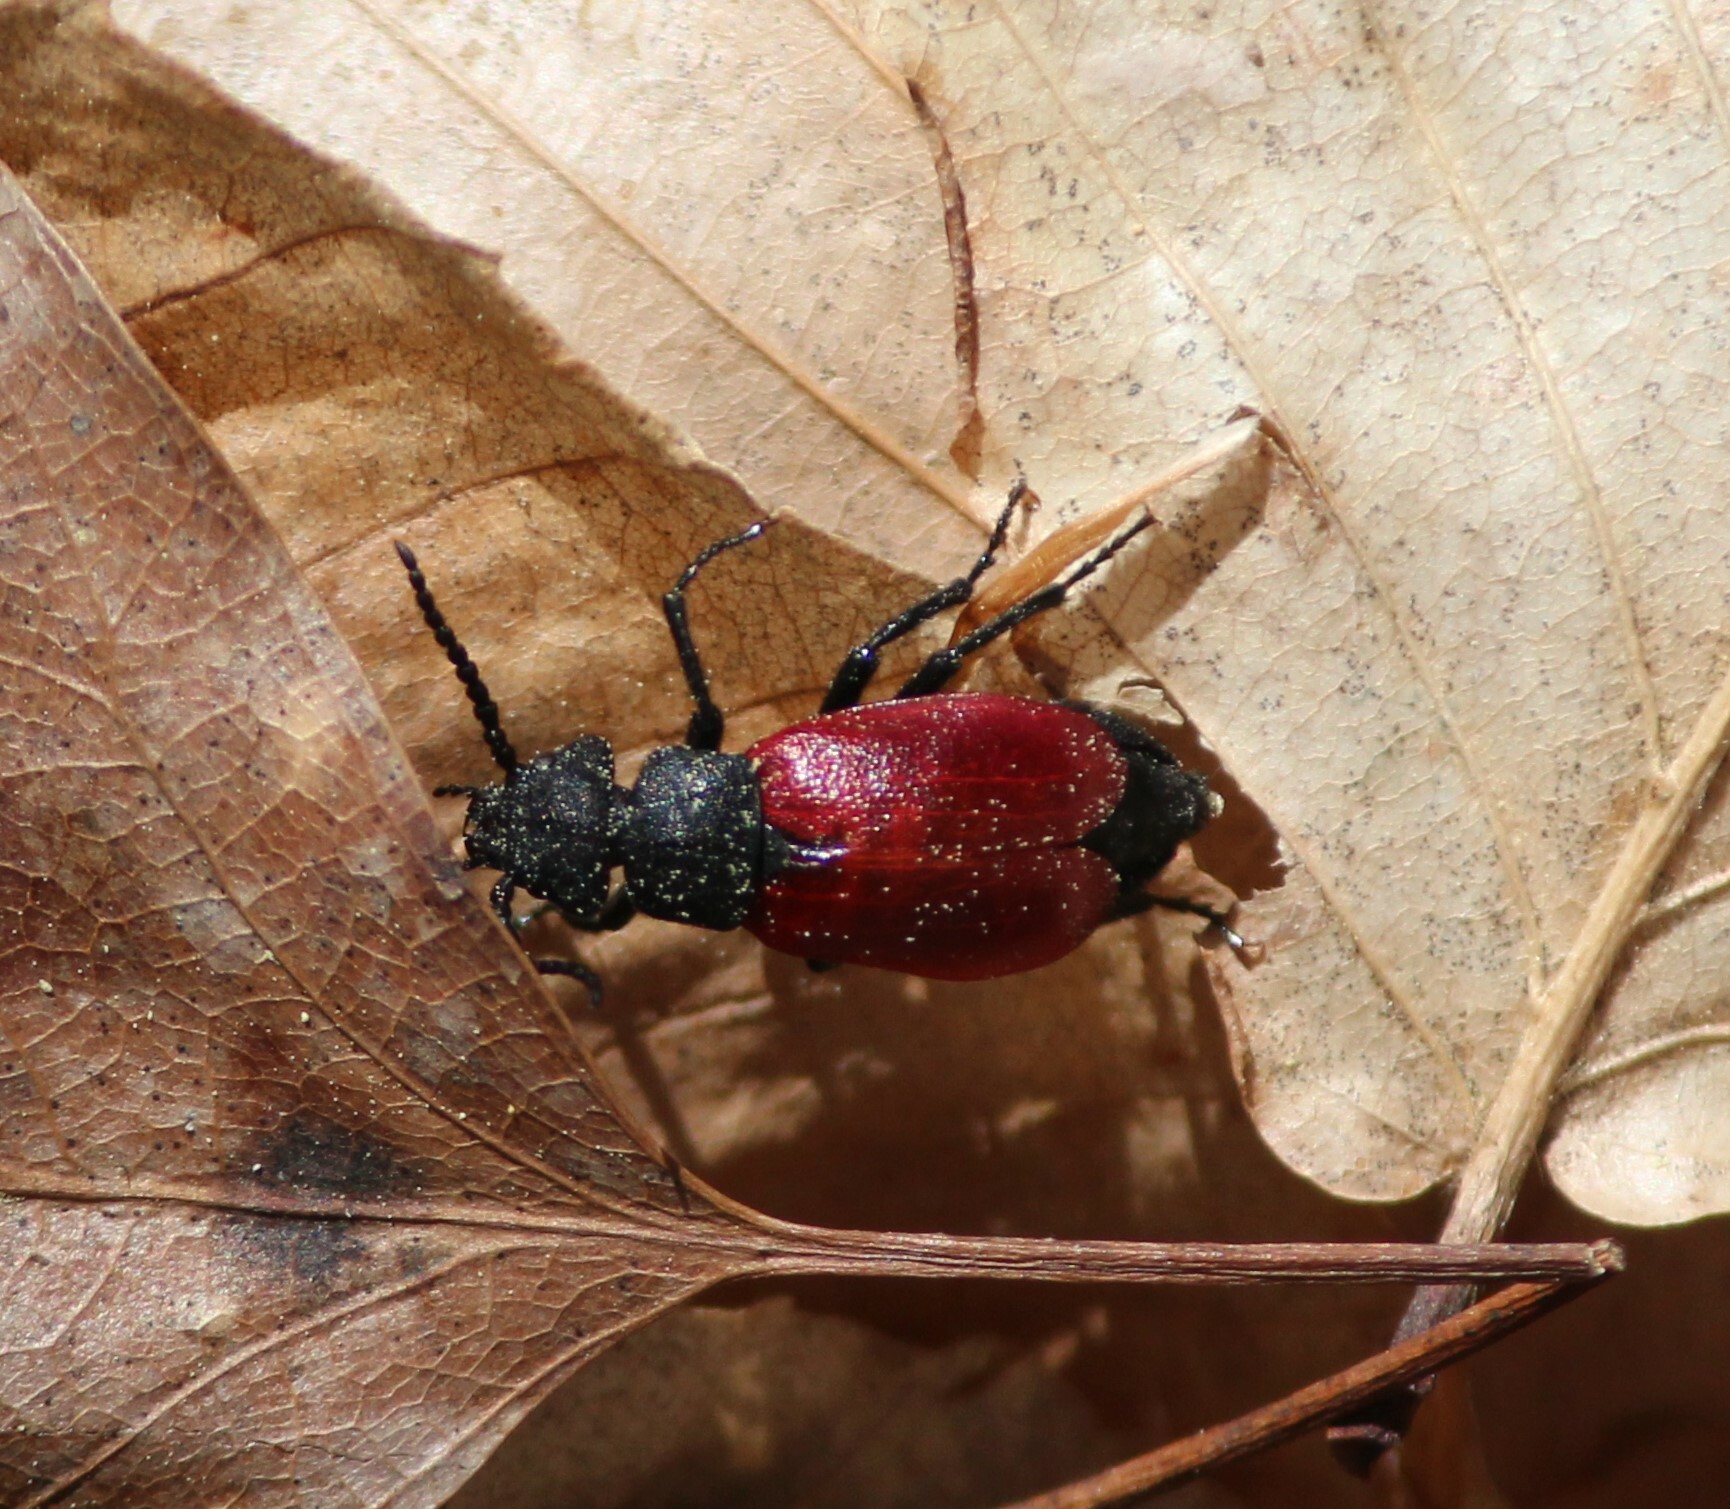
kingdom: Animalia
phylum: Arthropoda
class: Insecta
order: Coleoptera
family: Meloidae
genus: Tricrania
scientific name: Tricrania sanguinipennis
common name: Blood-winged blister beetle
